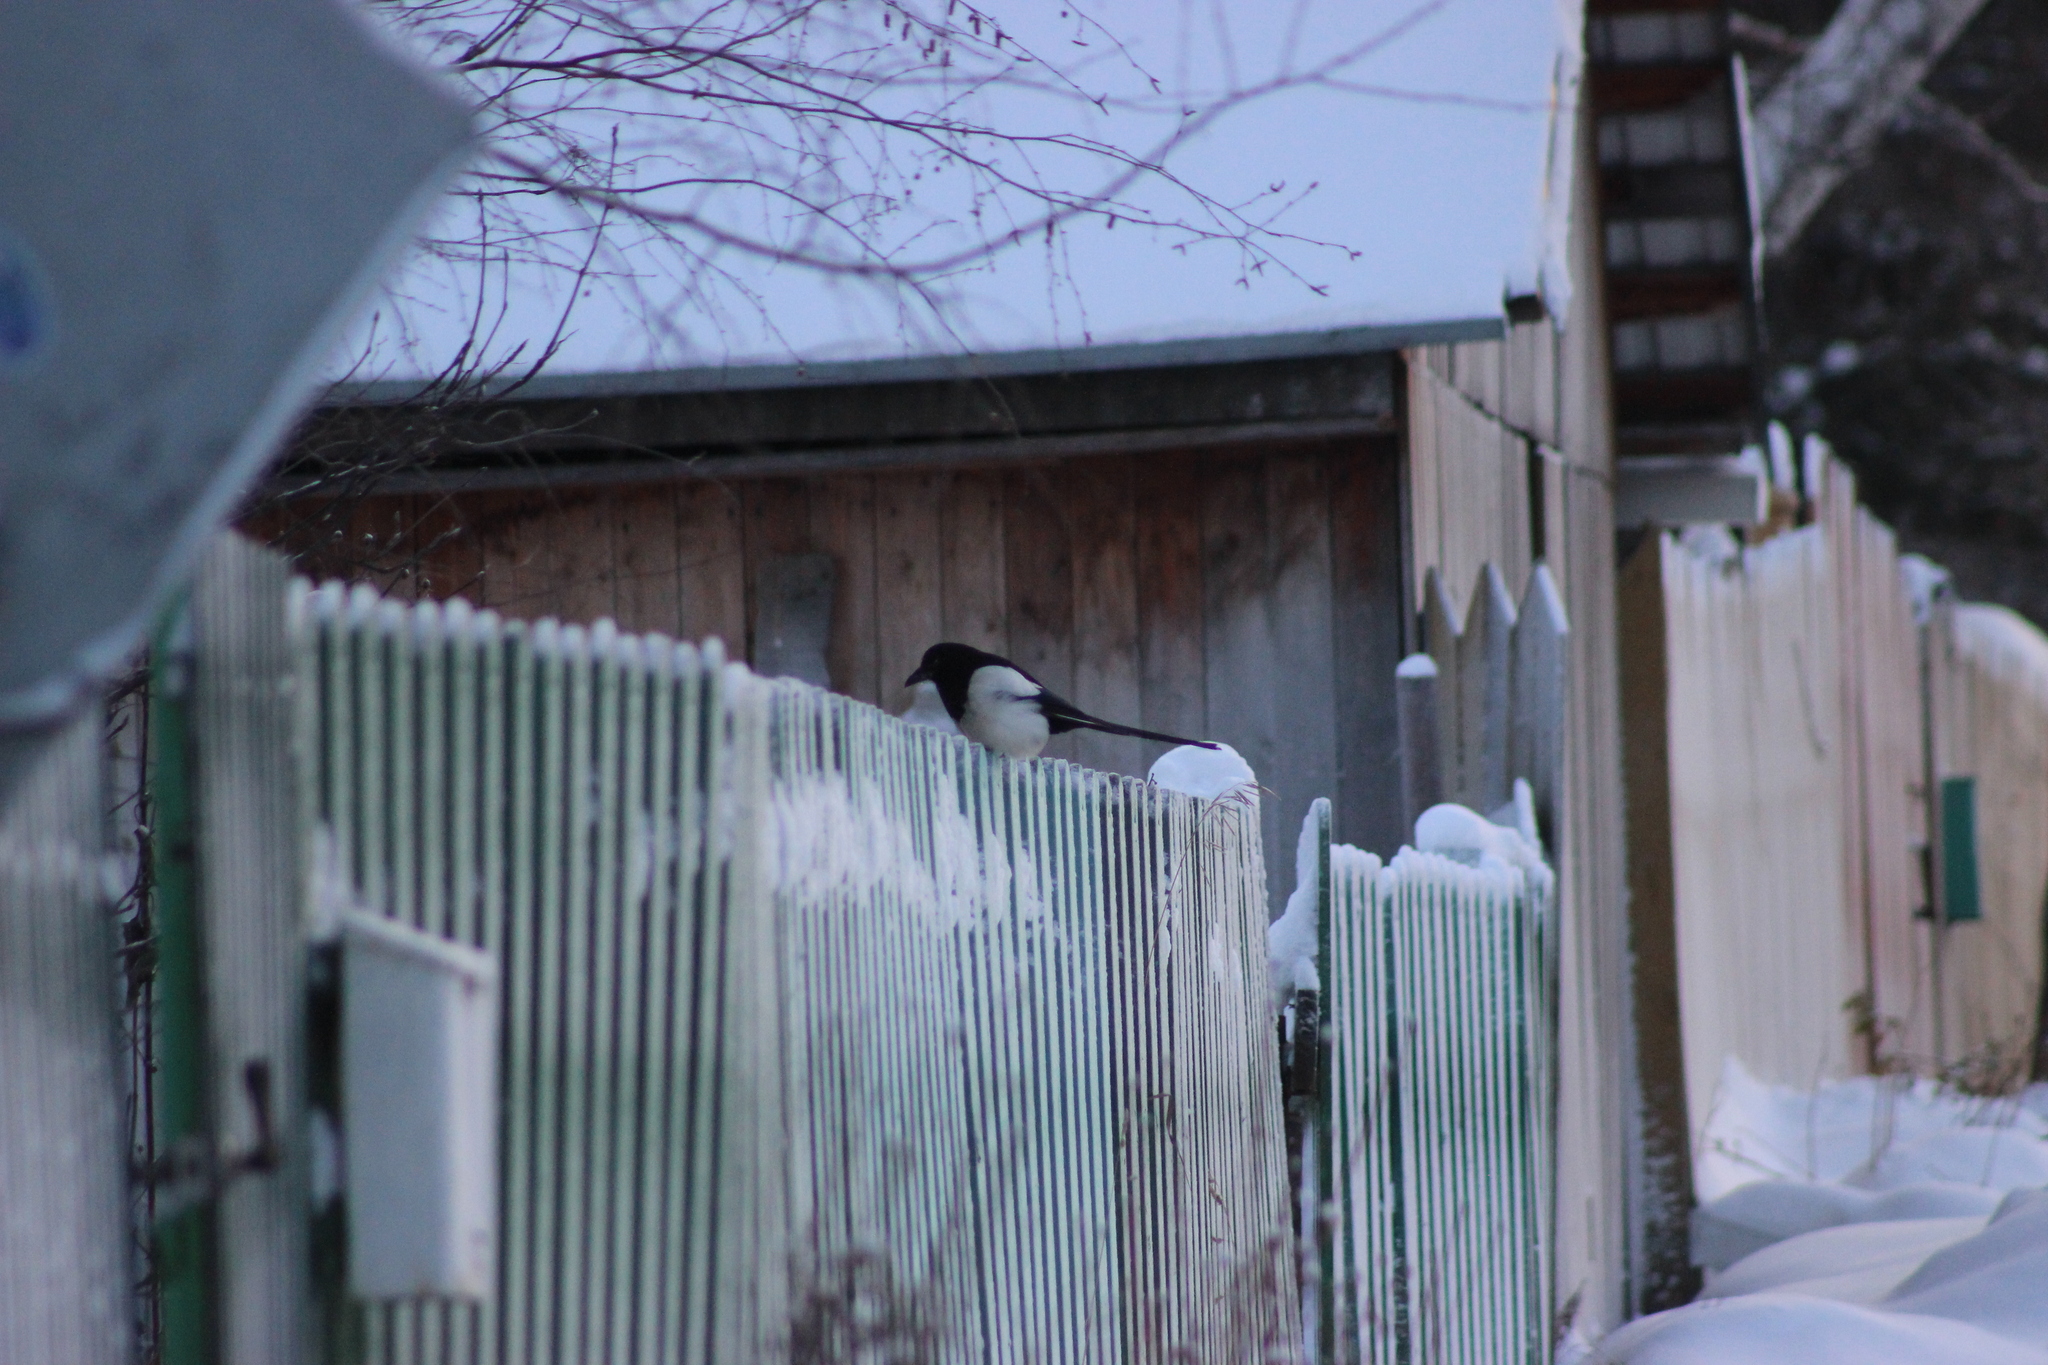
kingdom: Animalia
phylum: Chordata
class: Aves
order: Passeriformes
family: Corvidae
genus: Pica
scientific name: Pica pica
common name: Eurasian magpie
